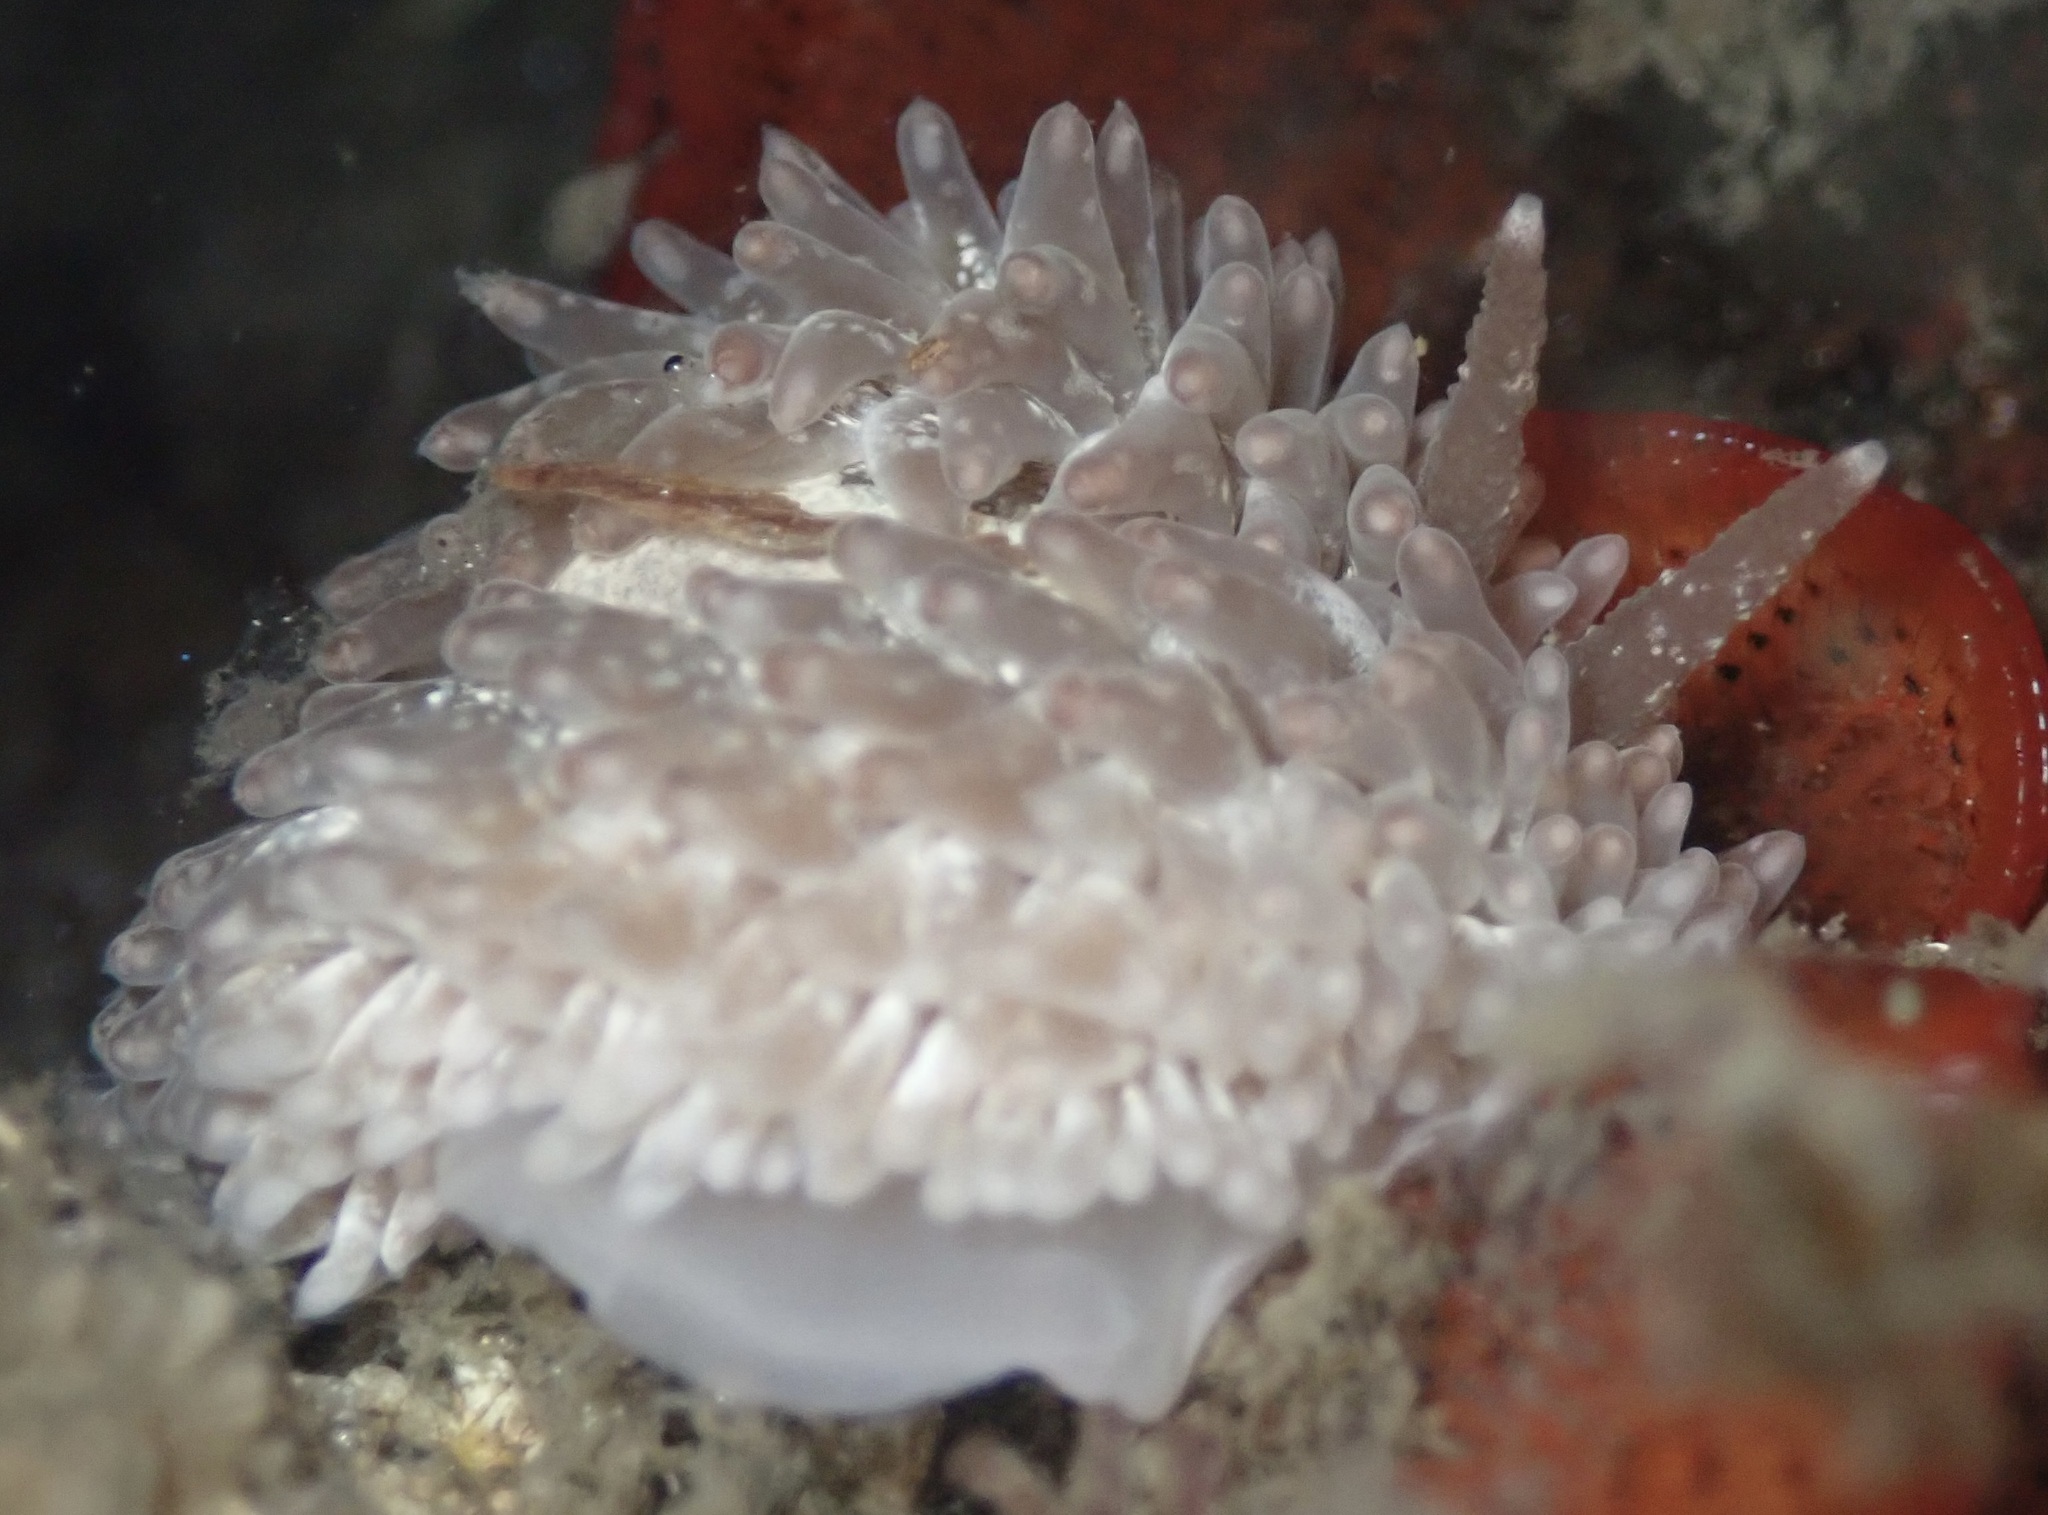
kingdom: Animalia
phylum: Mollusca
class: Gastropoda
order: Nudibranchia
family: Aeolidiidae
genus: Aeolidia
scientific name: Aeolidia loui
